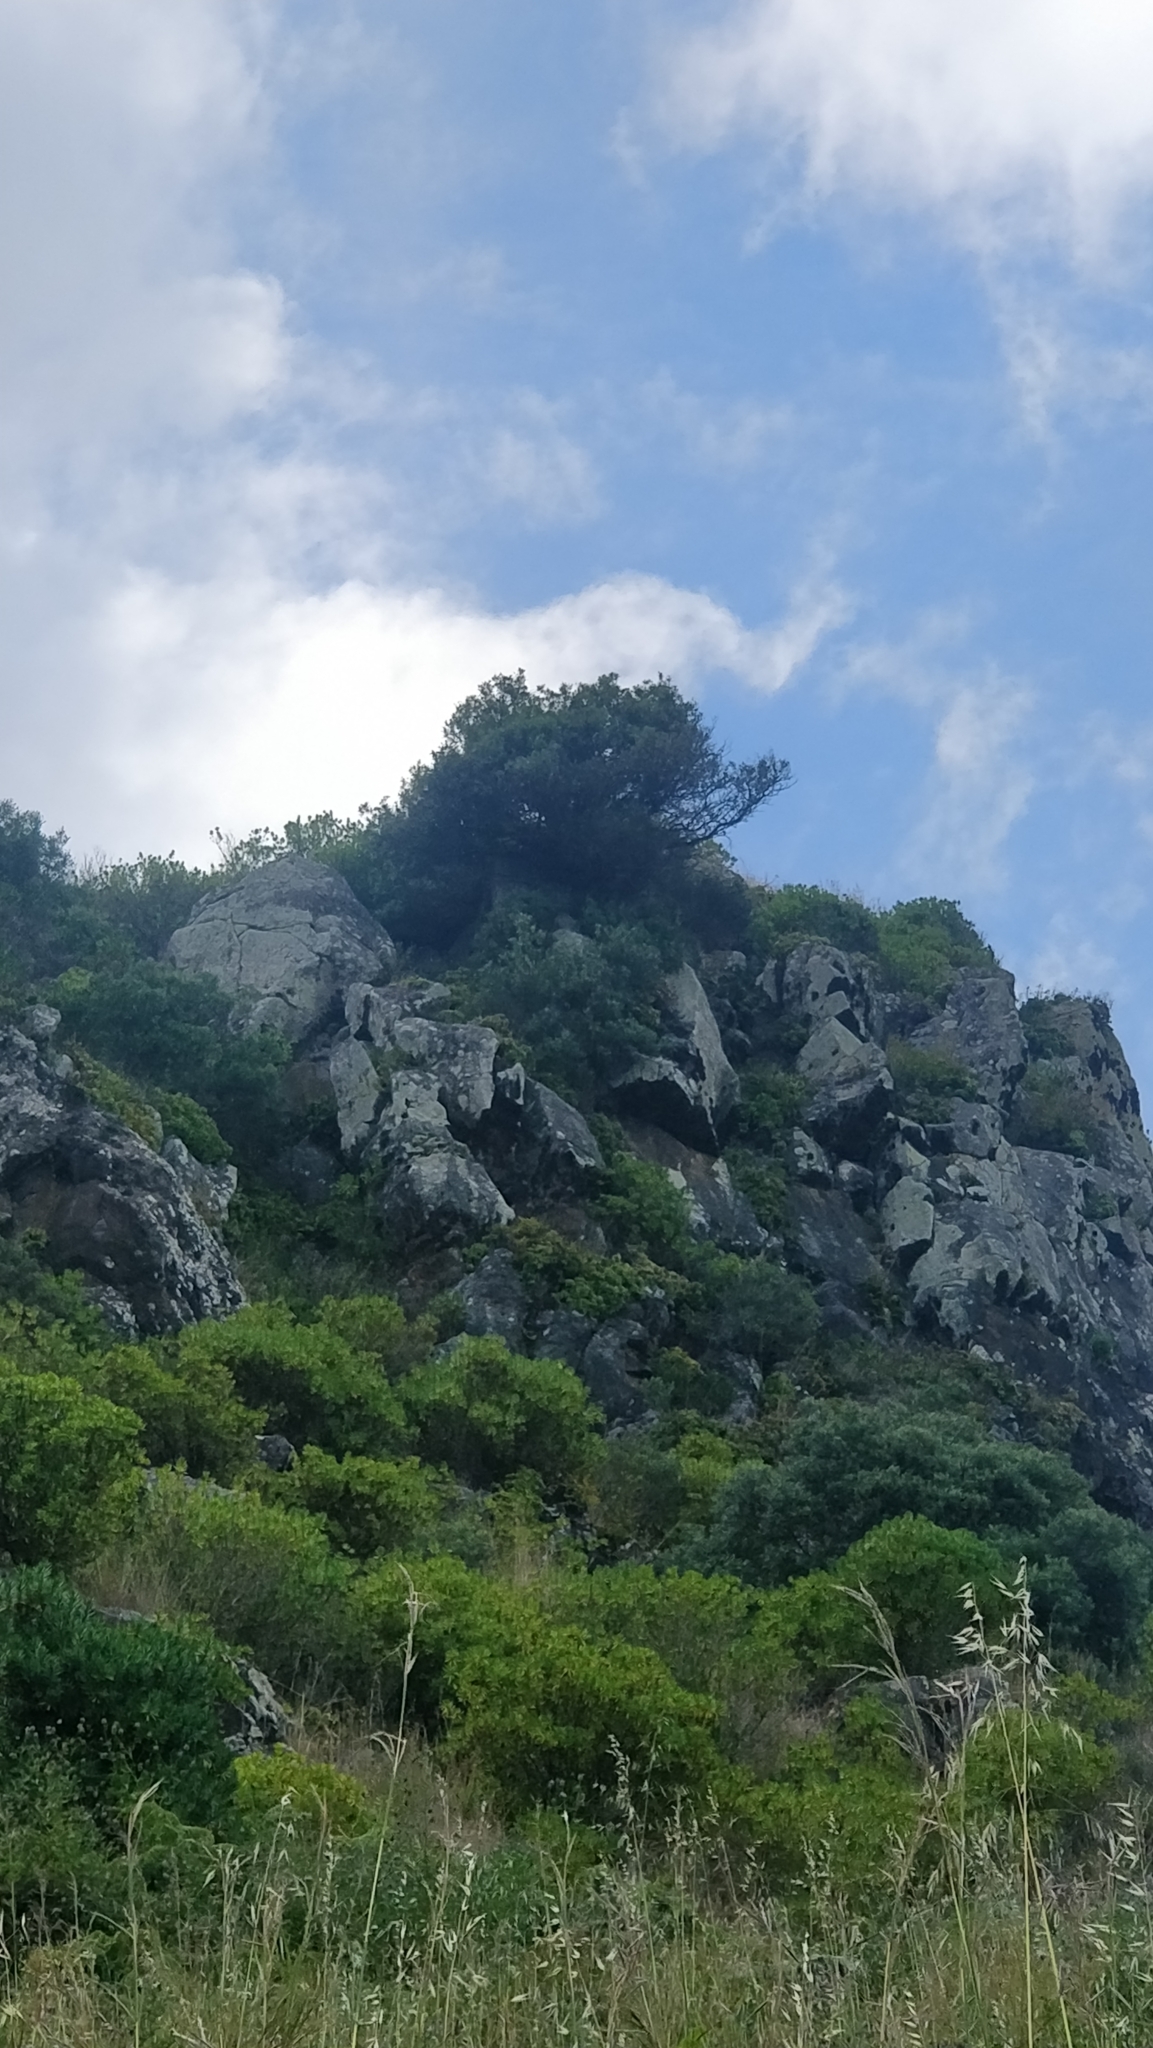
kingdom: Plantae
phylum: Tracheophyta
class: Magnoliopsida
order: Lamiales
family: Oleaceae
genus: Olea
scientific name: Olea europaea
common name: Olive
